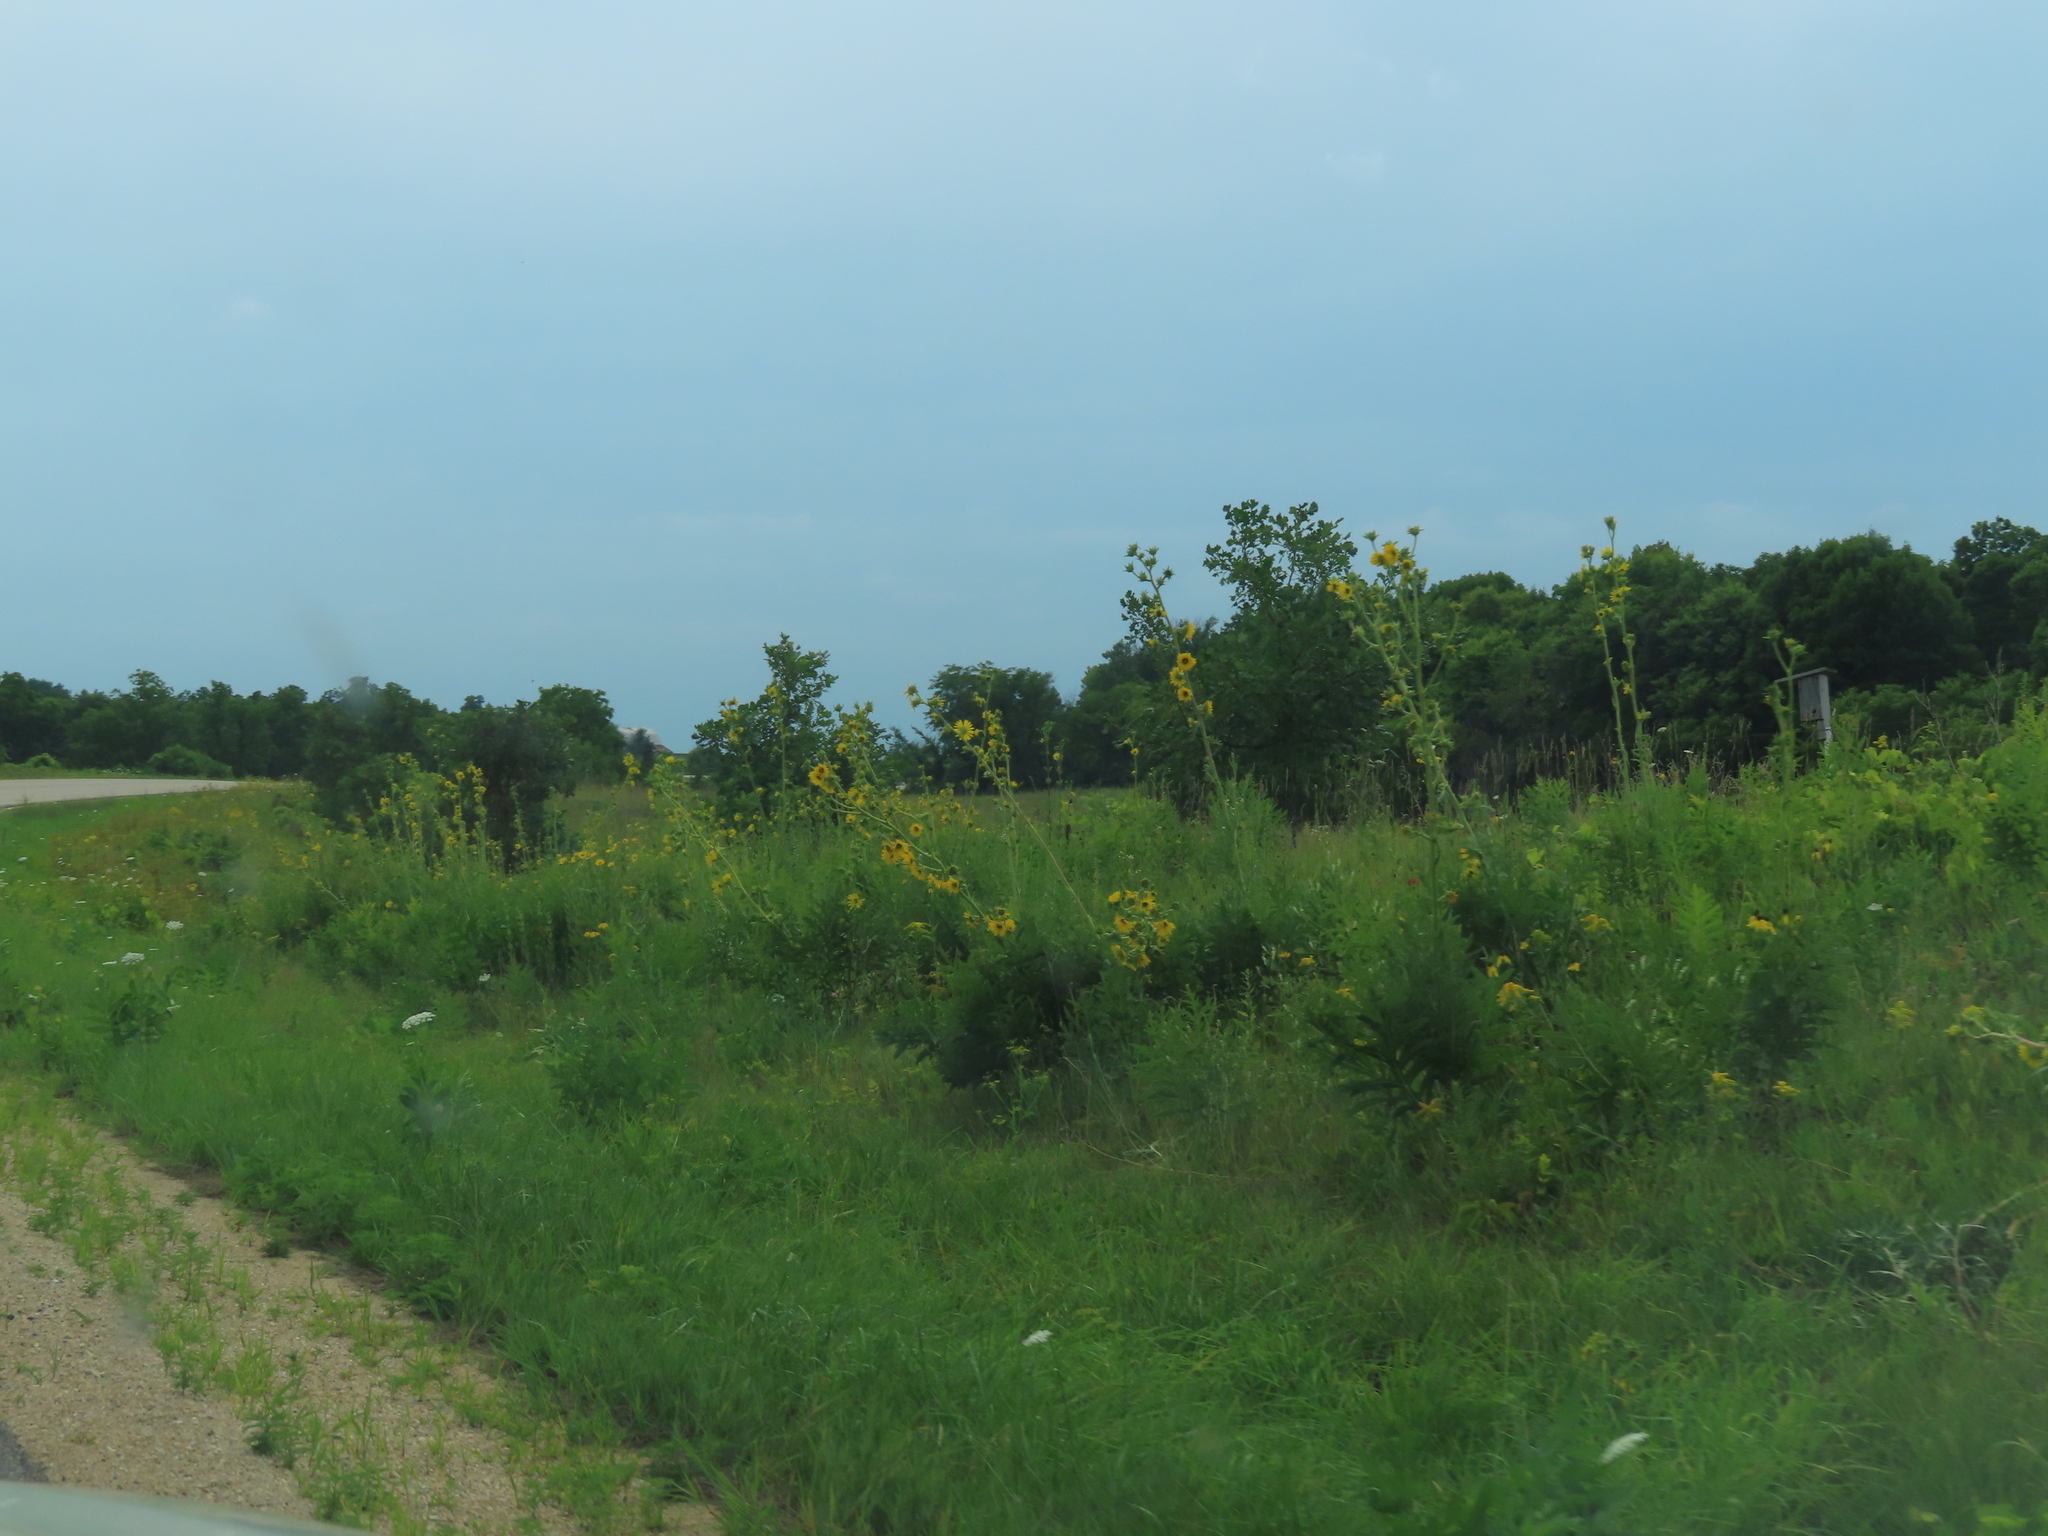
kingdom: Plantae
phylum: Tracheophyta
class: Magnoliopsida
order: Asterales
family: Asteraceae
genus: Silphium
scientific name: Silphium laciniatum
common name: Polarplant
